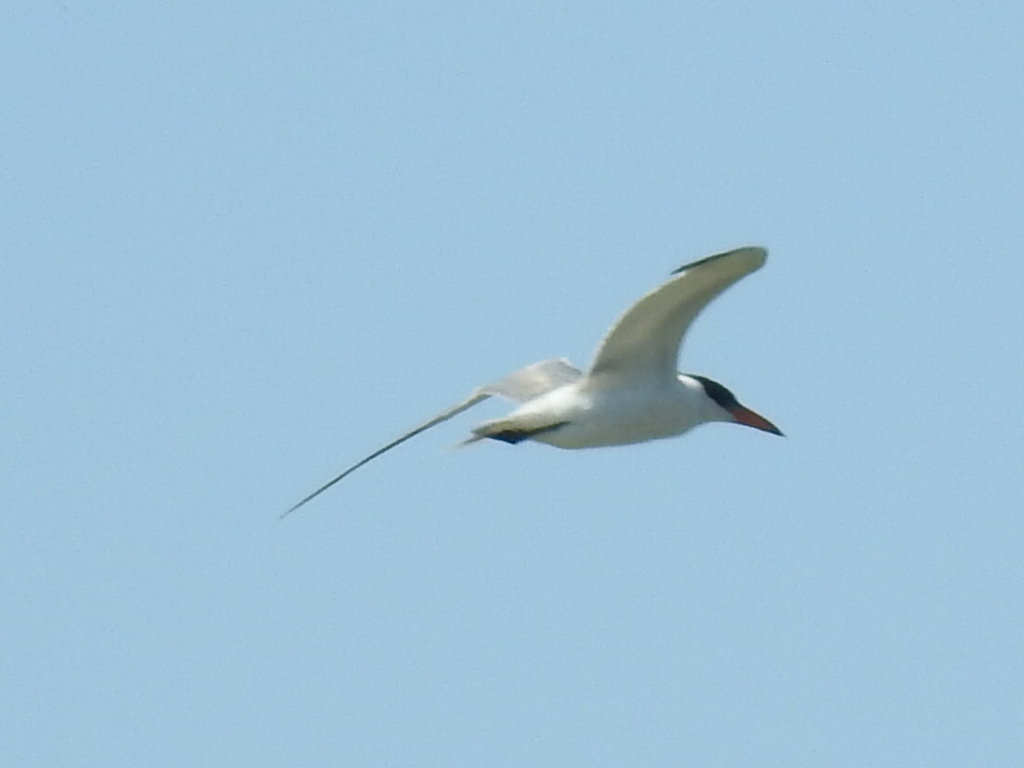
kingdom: Animalia
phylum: Chordata
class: Aves
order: Charadriiformes
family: Laridae
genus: Sterna
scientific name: Sterna forsteri
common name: Forster's tern
